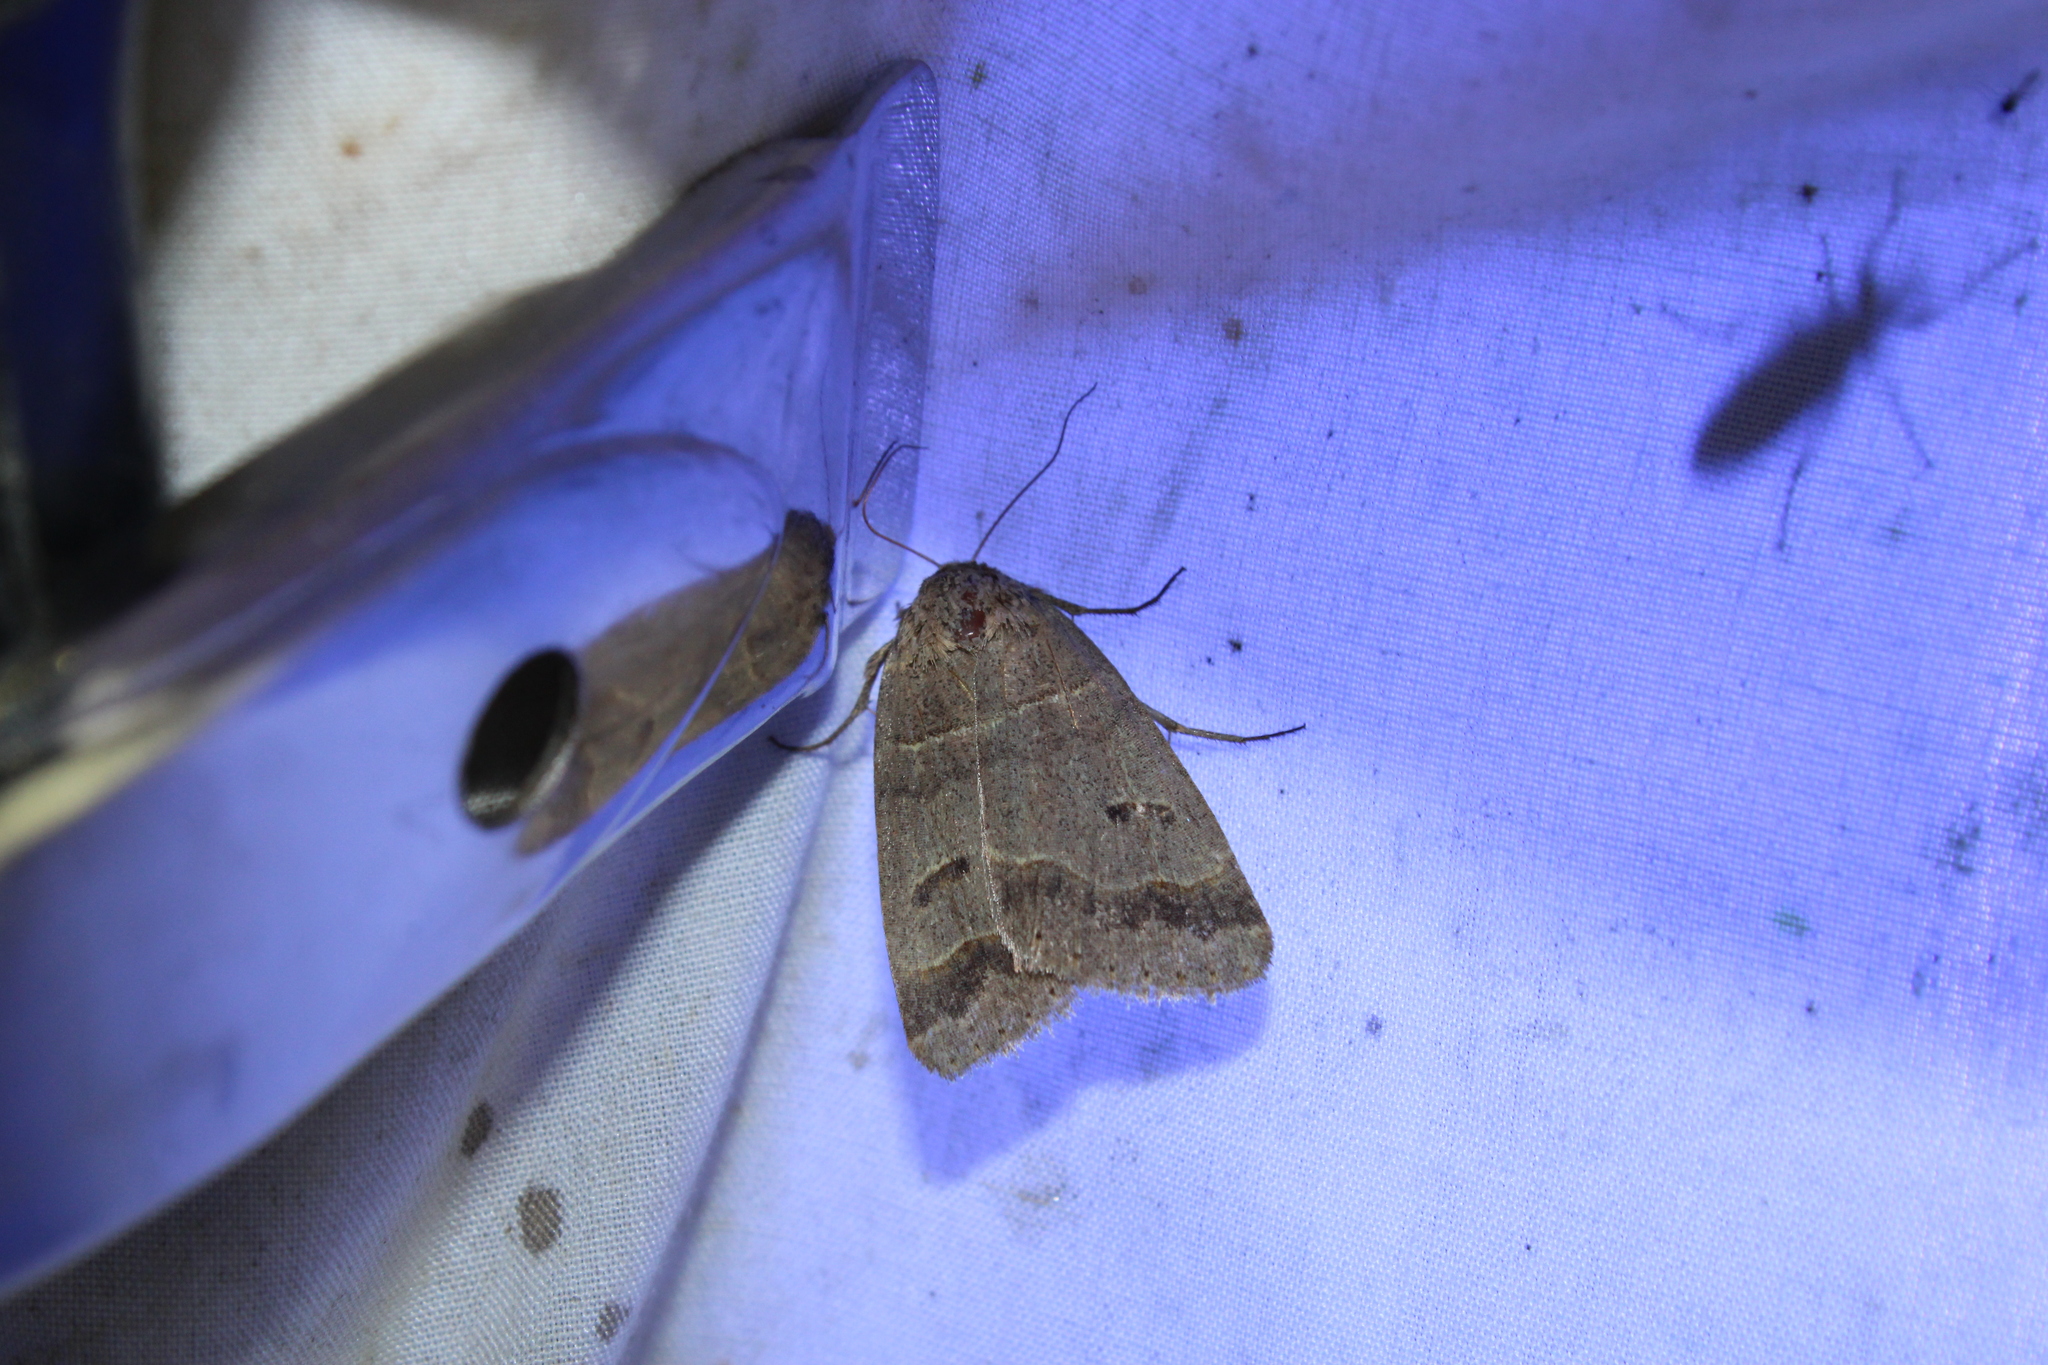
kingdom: Animalia
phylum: Arthropoda
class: Insecta
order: Lepidoptera
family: Erebidae
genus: Phoberia
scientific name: Phoberia atomaris
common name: Common oak moth
